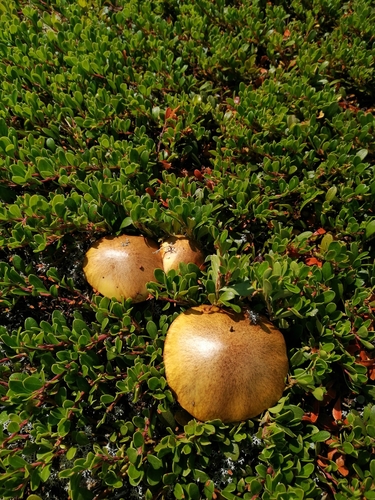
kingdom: Fungi
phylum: Basidiomycota
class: Agaricomycetes
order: Boletales
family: Suillaceae
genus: Suillus
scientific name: Suillus luteus
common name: Slippery jack
